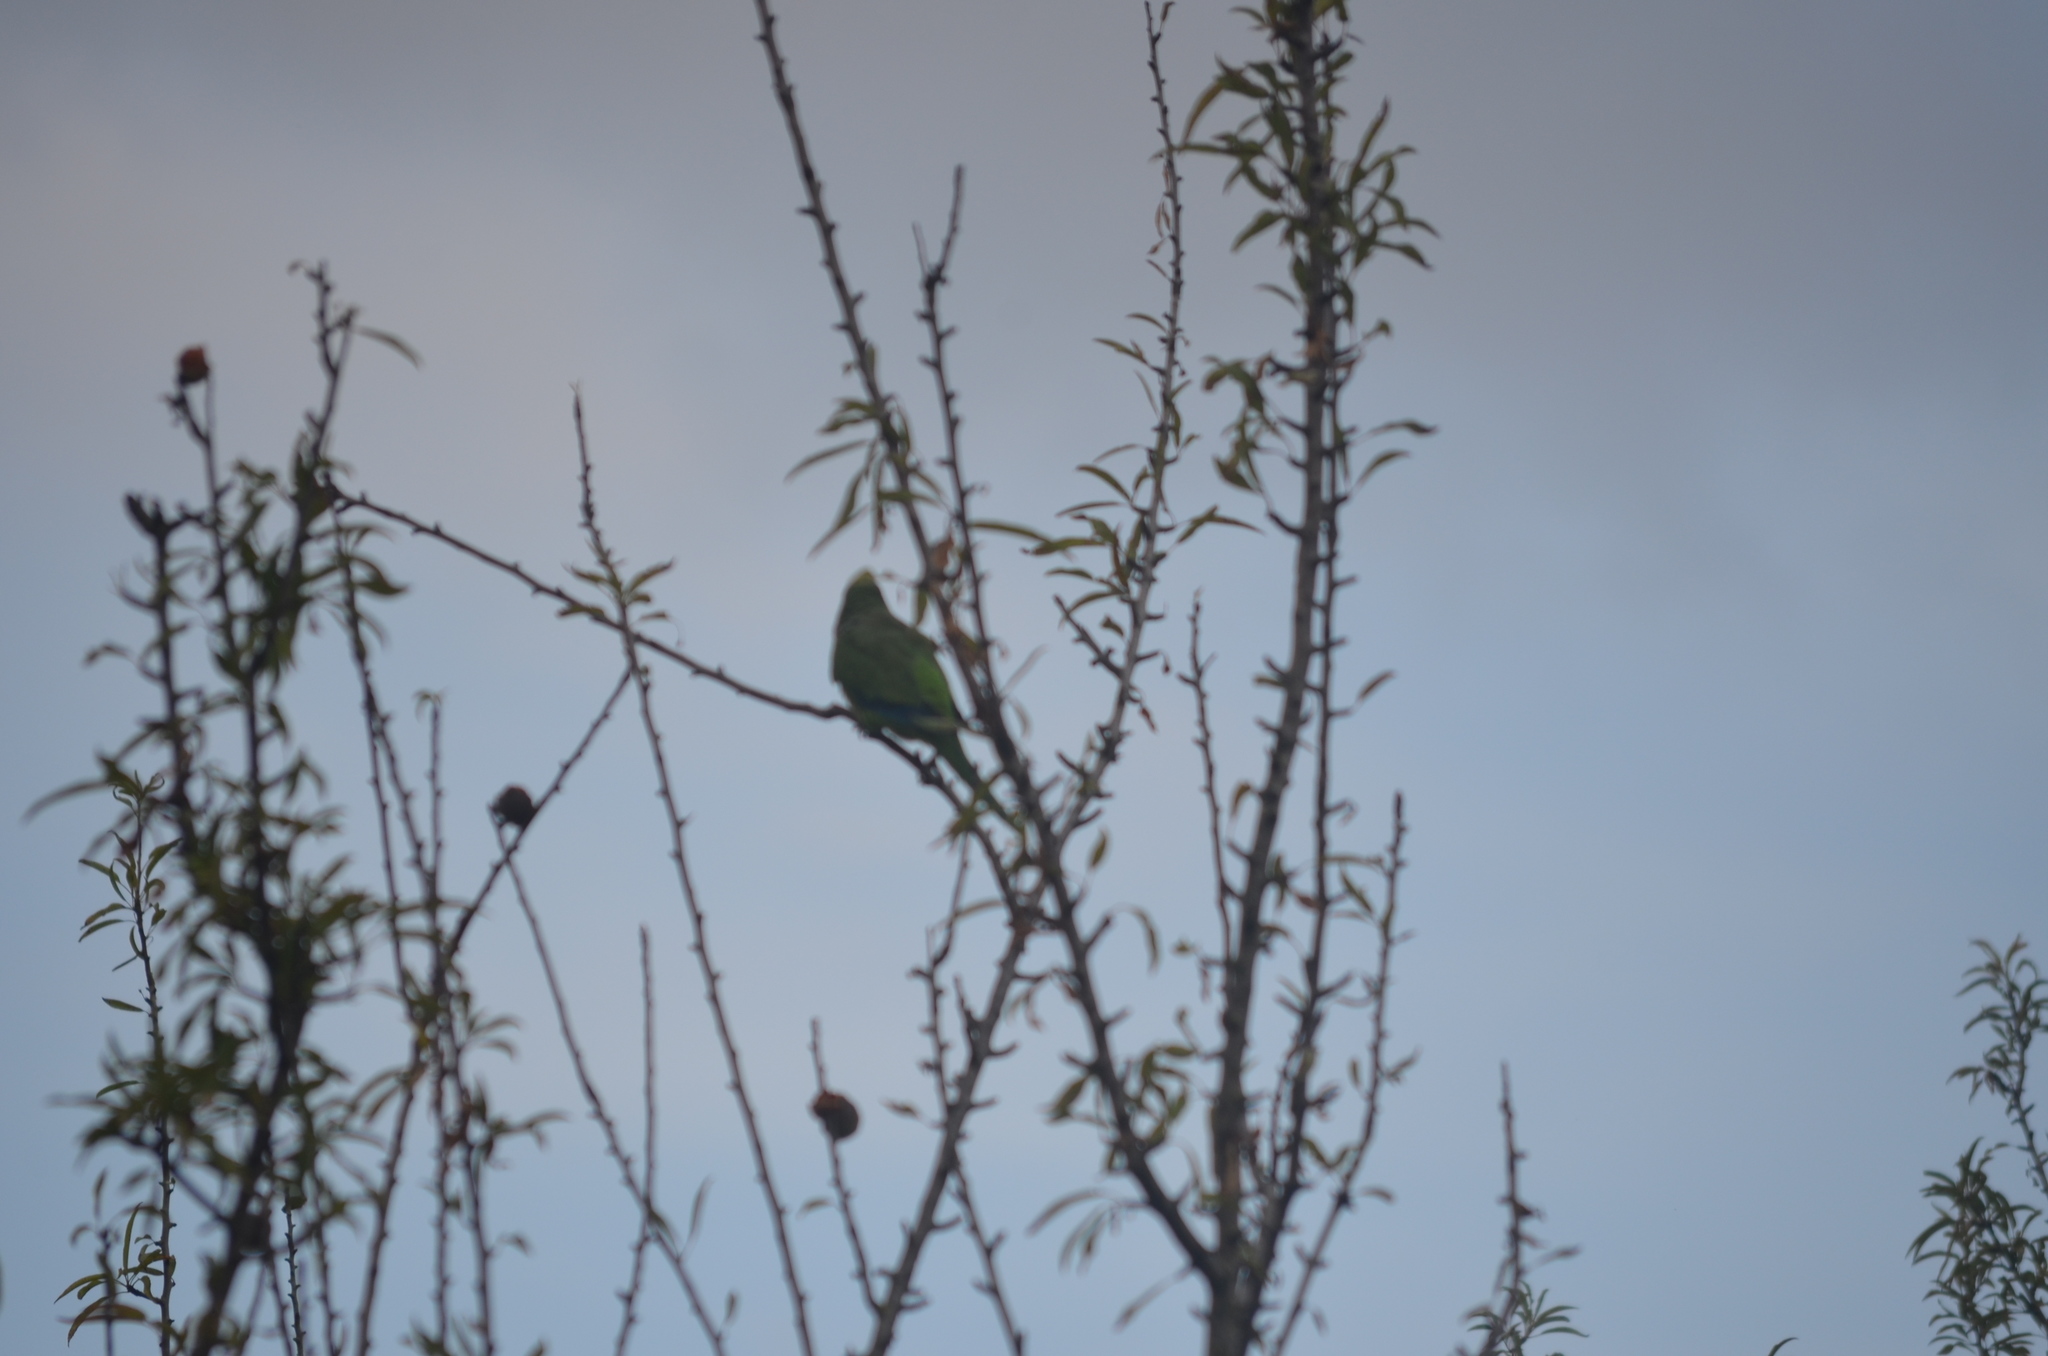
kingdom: Animalia
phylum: Chordata
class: Aves
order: Psittaciformes
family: Psittacidae
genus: Myiopsitta
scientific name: Myiopsitta monachus
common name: Monk parakeet
